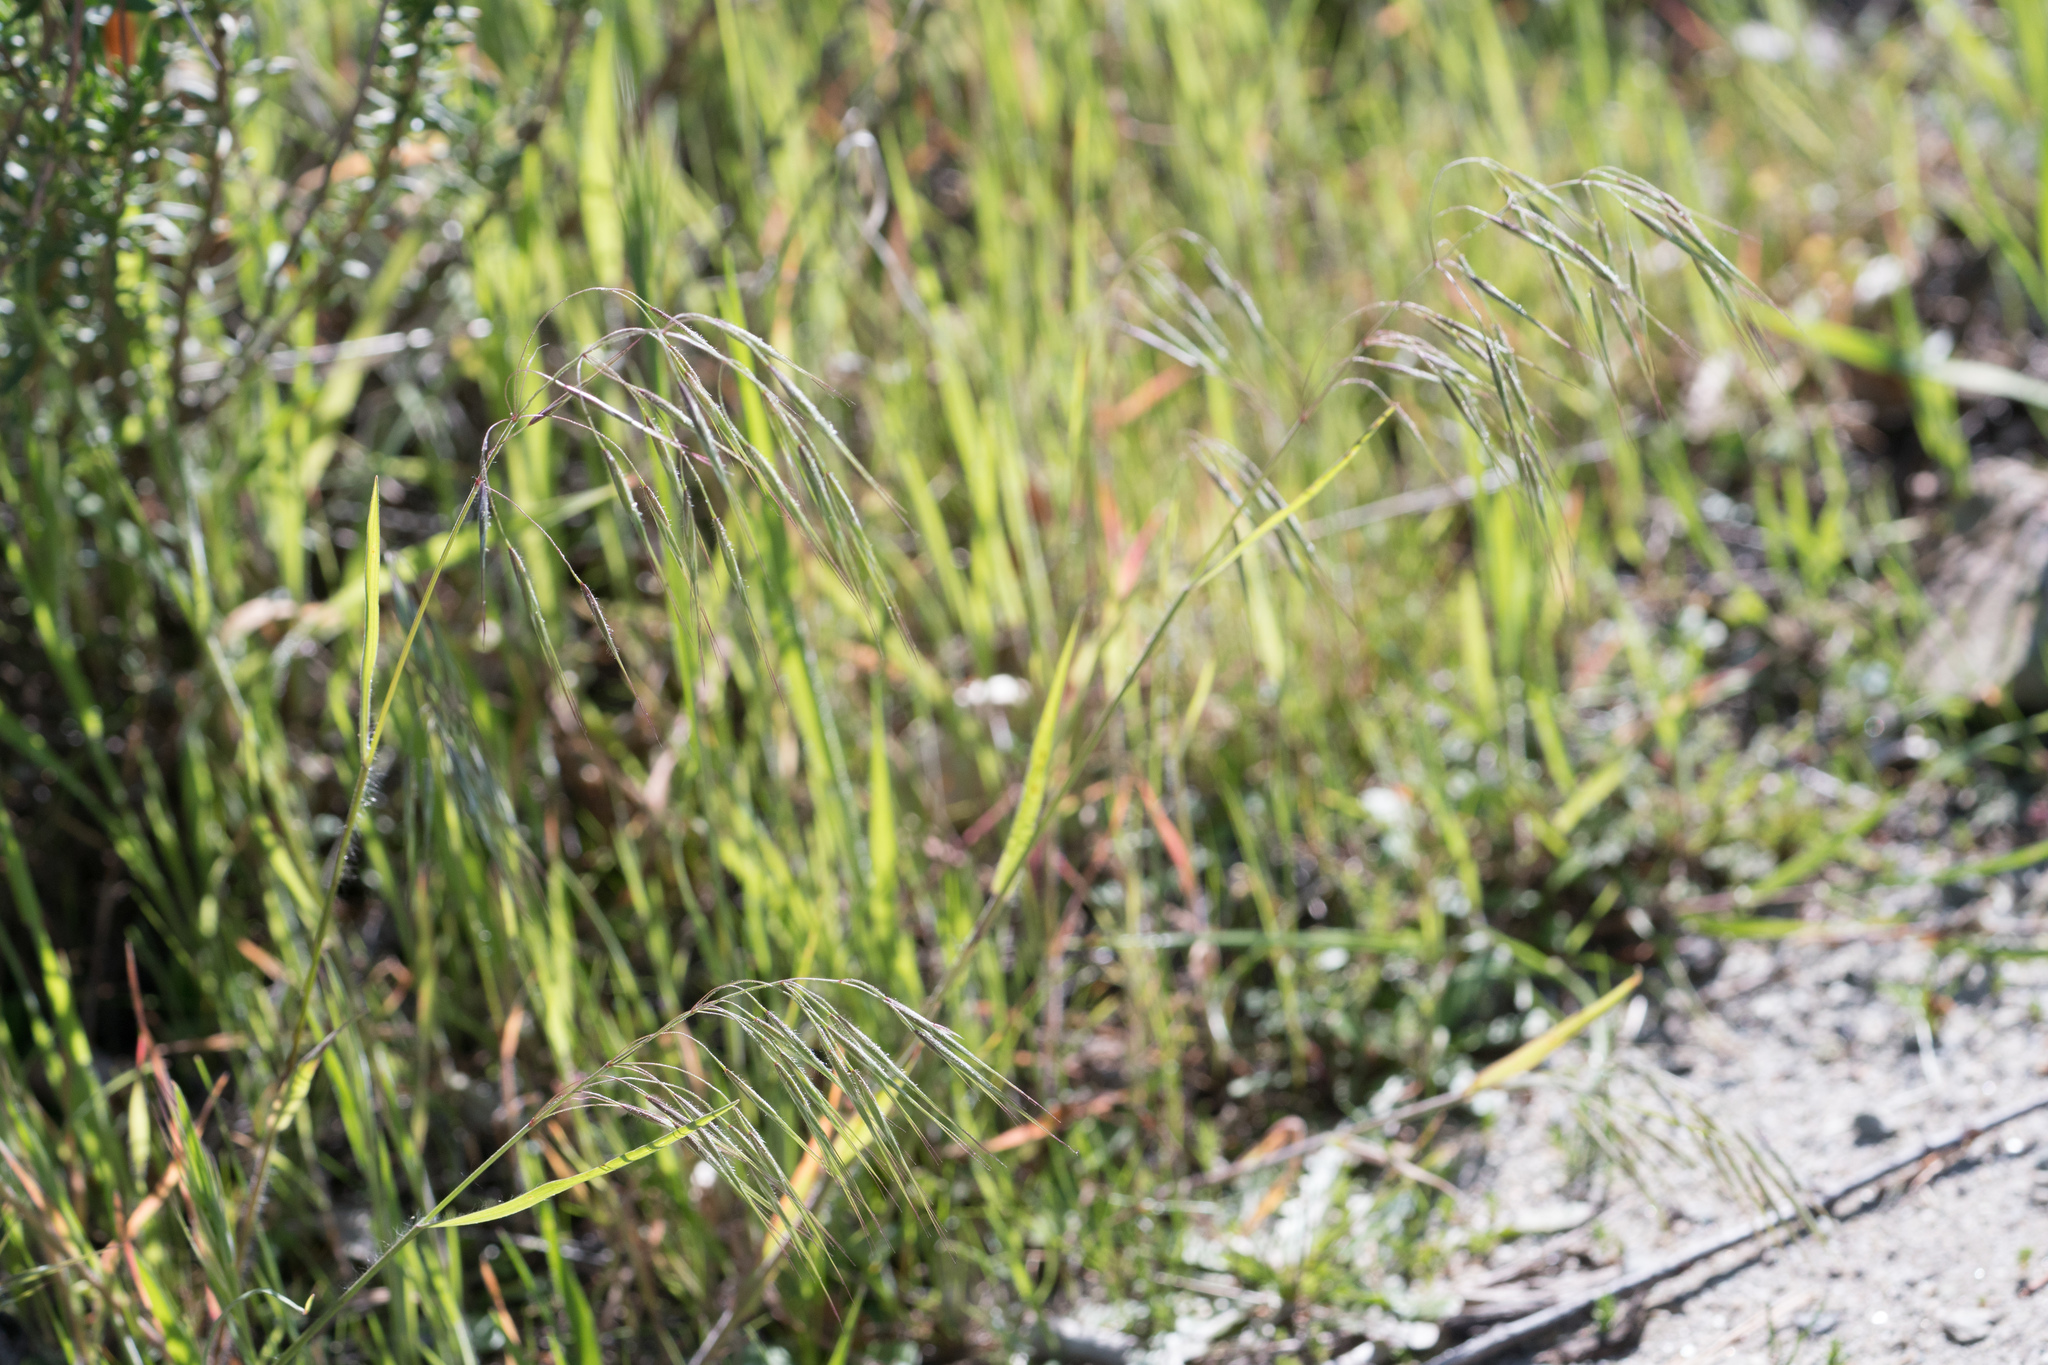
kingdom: Plantae
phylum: Tracheophyta
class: Liliopsida
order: Poales
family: Poaceae
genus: Bromus
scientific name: Bromus tectorum
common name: Cheatgrass
